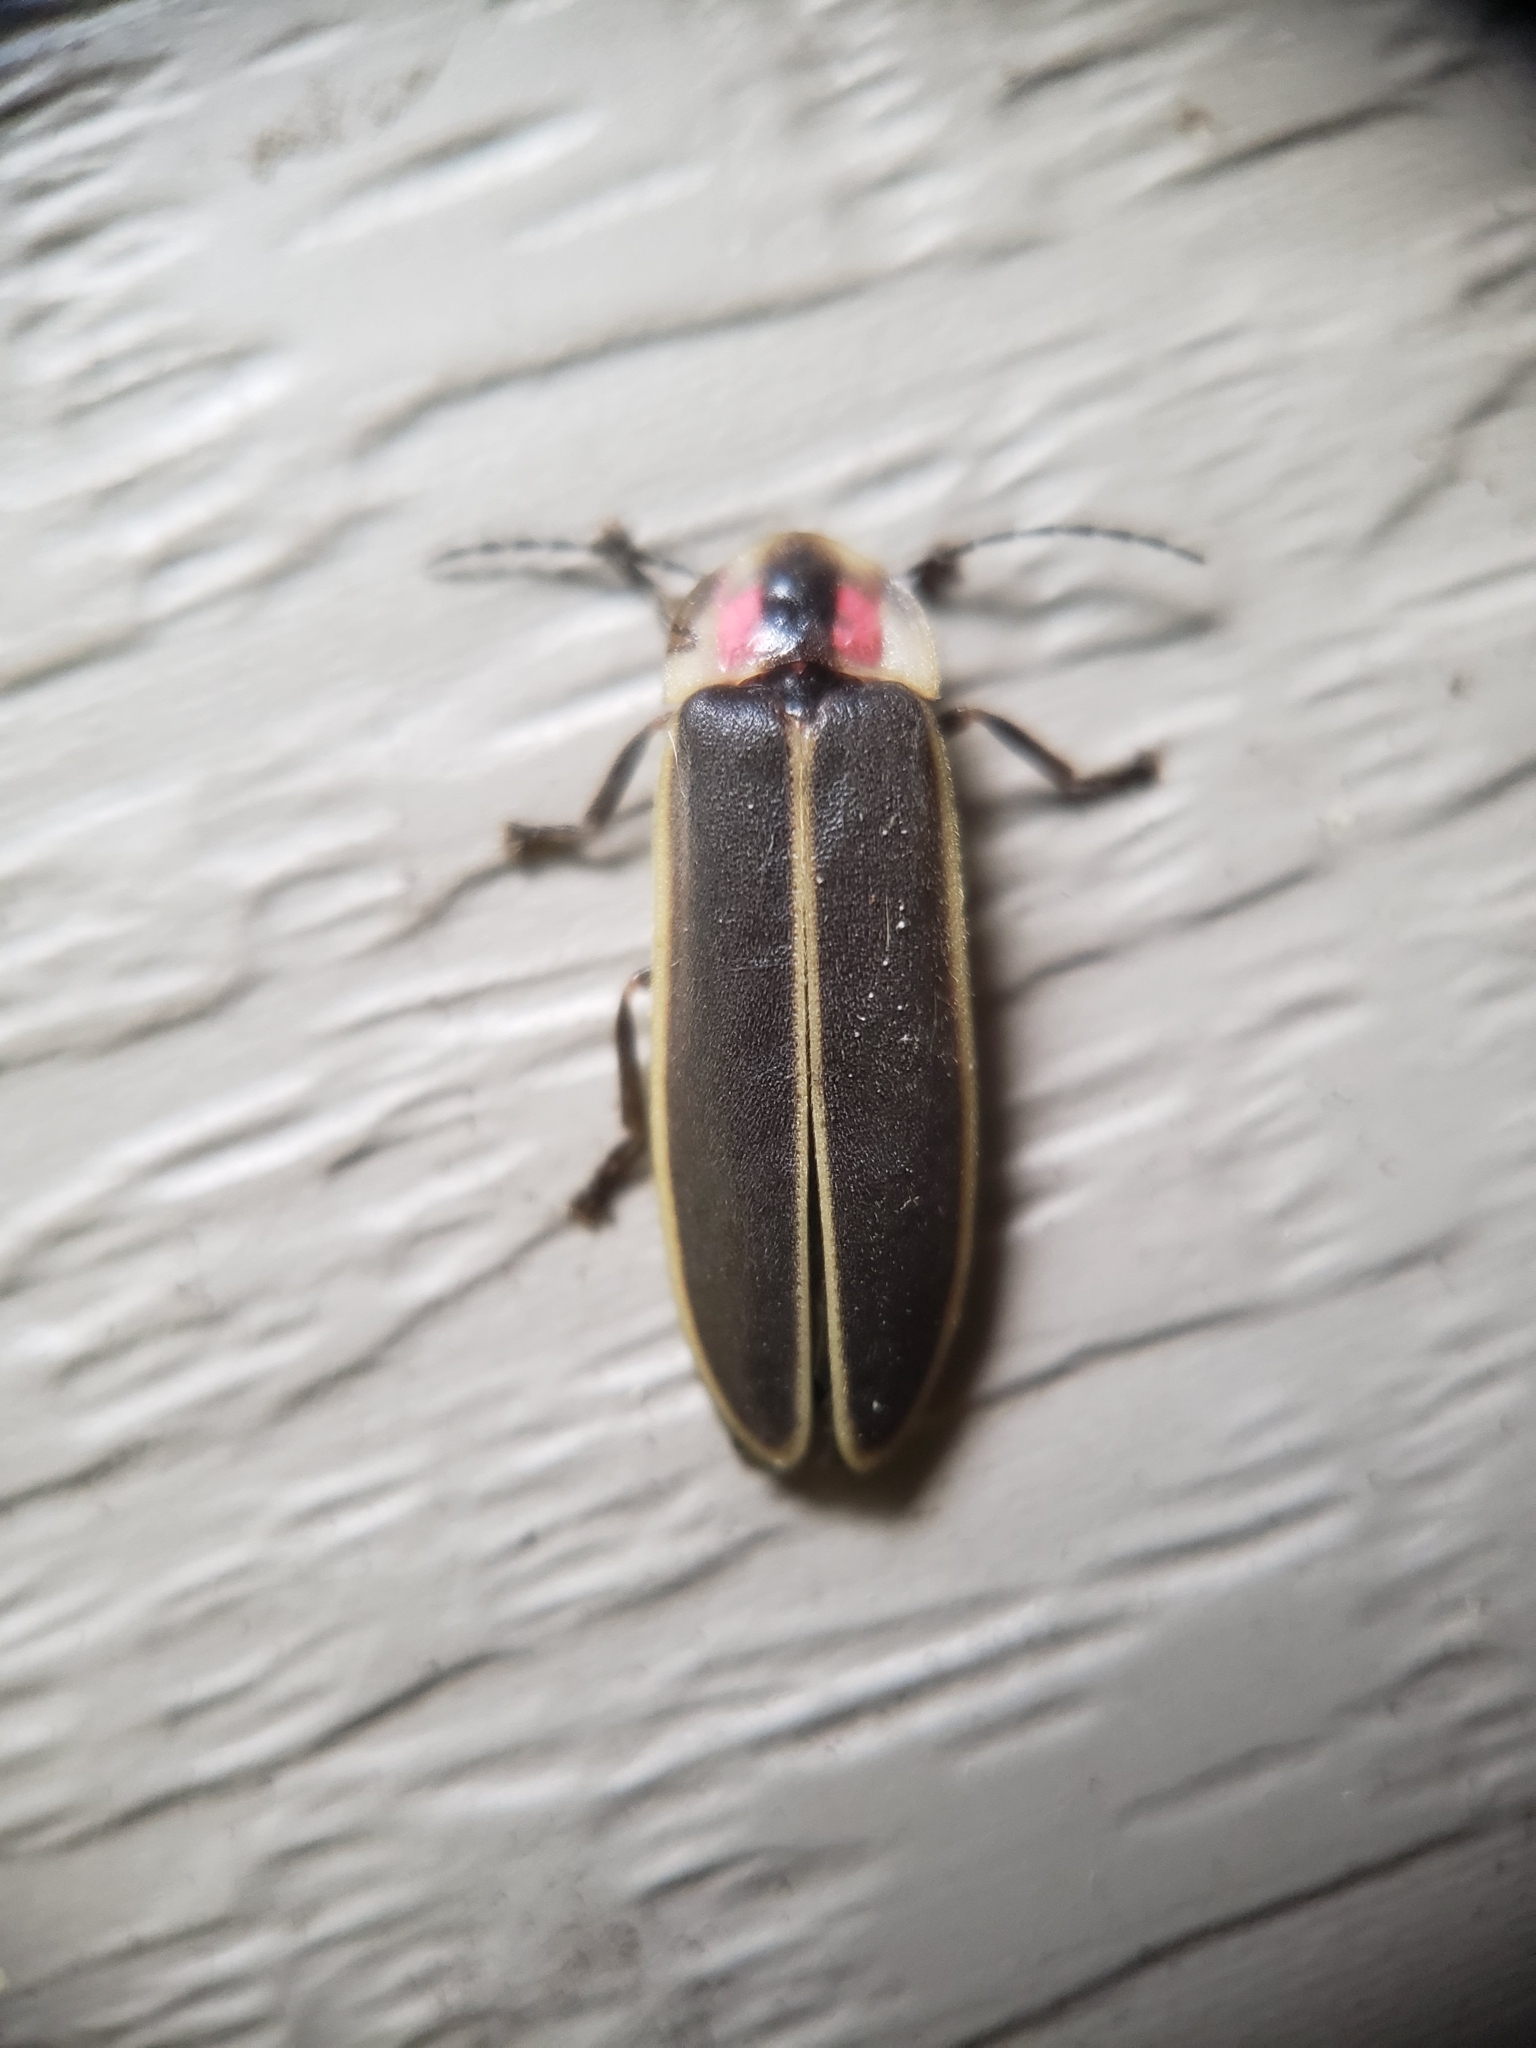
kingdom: Animalia
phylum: Arthropoda
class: Insecta
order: Coleoptera
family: Lampyridae
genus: Photinus
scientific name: Photinus pyralis
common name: Big dipper firefly
